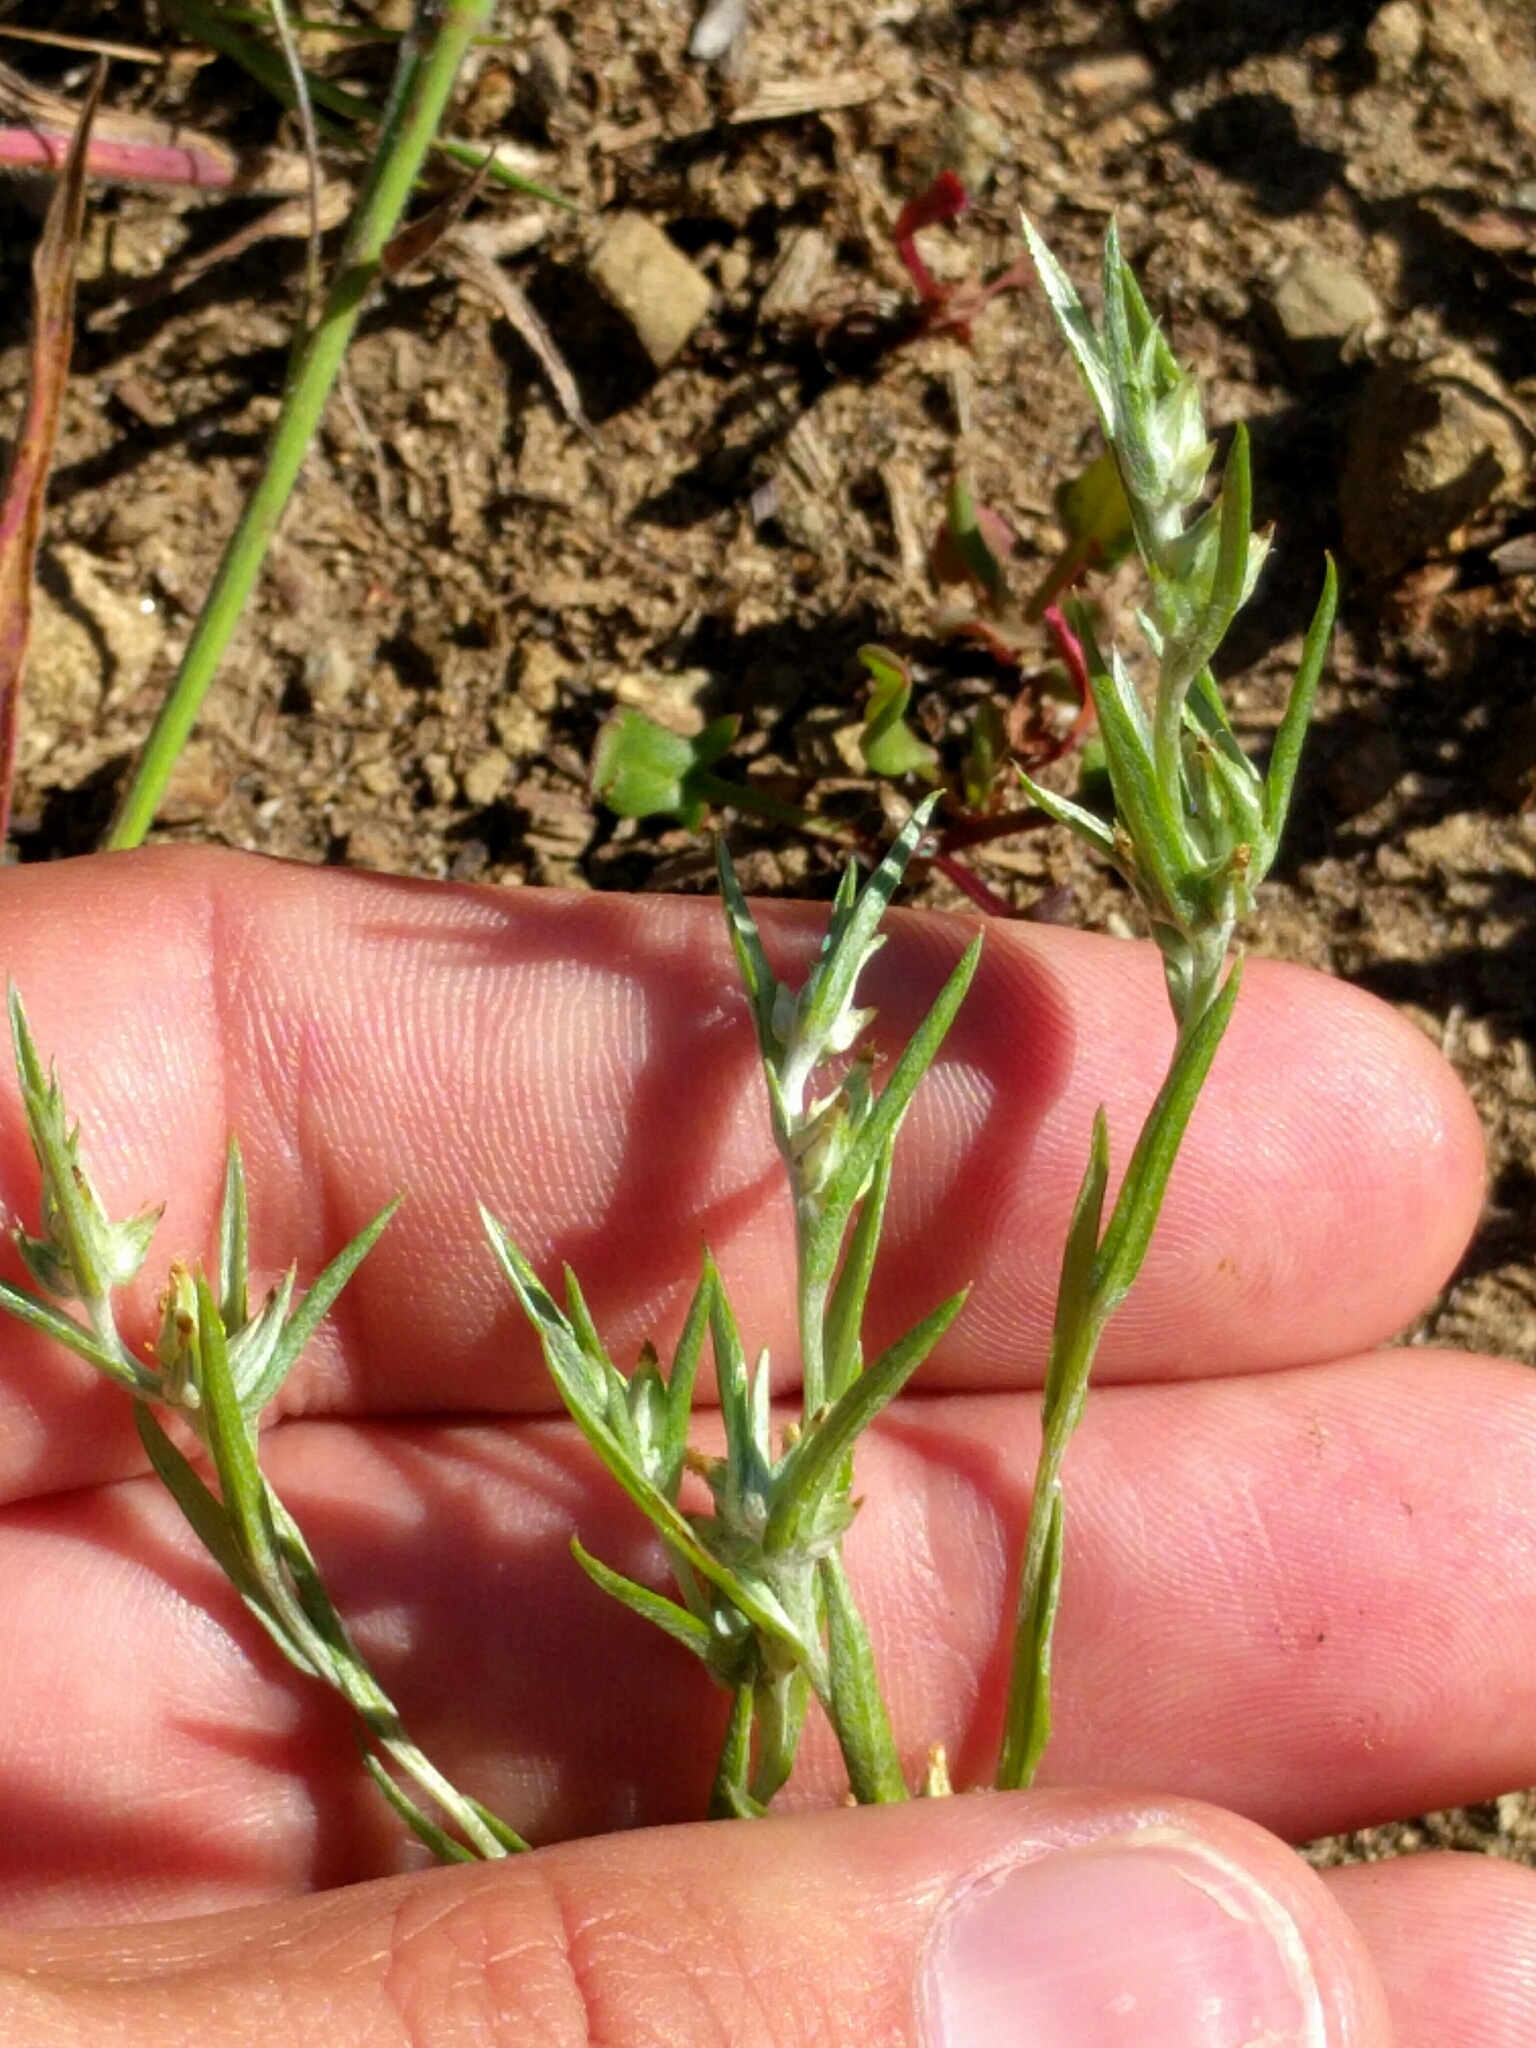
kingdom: Plantae
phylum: Tracheophyta
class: Magnoliopsida
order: Asterales
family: Asteraceae
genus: Logfia
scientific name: Logfia gallica
